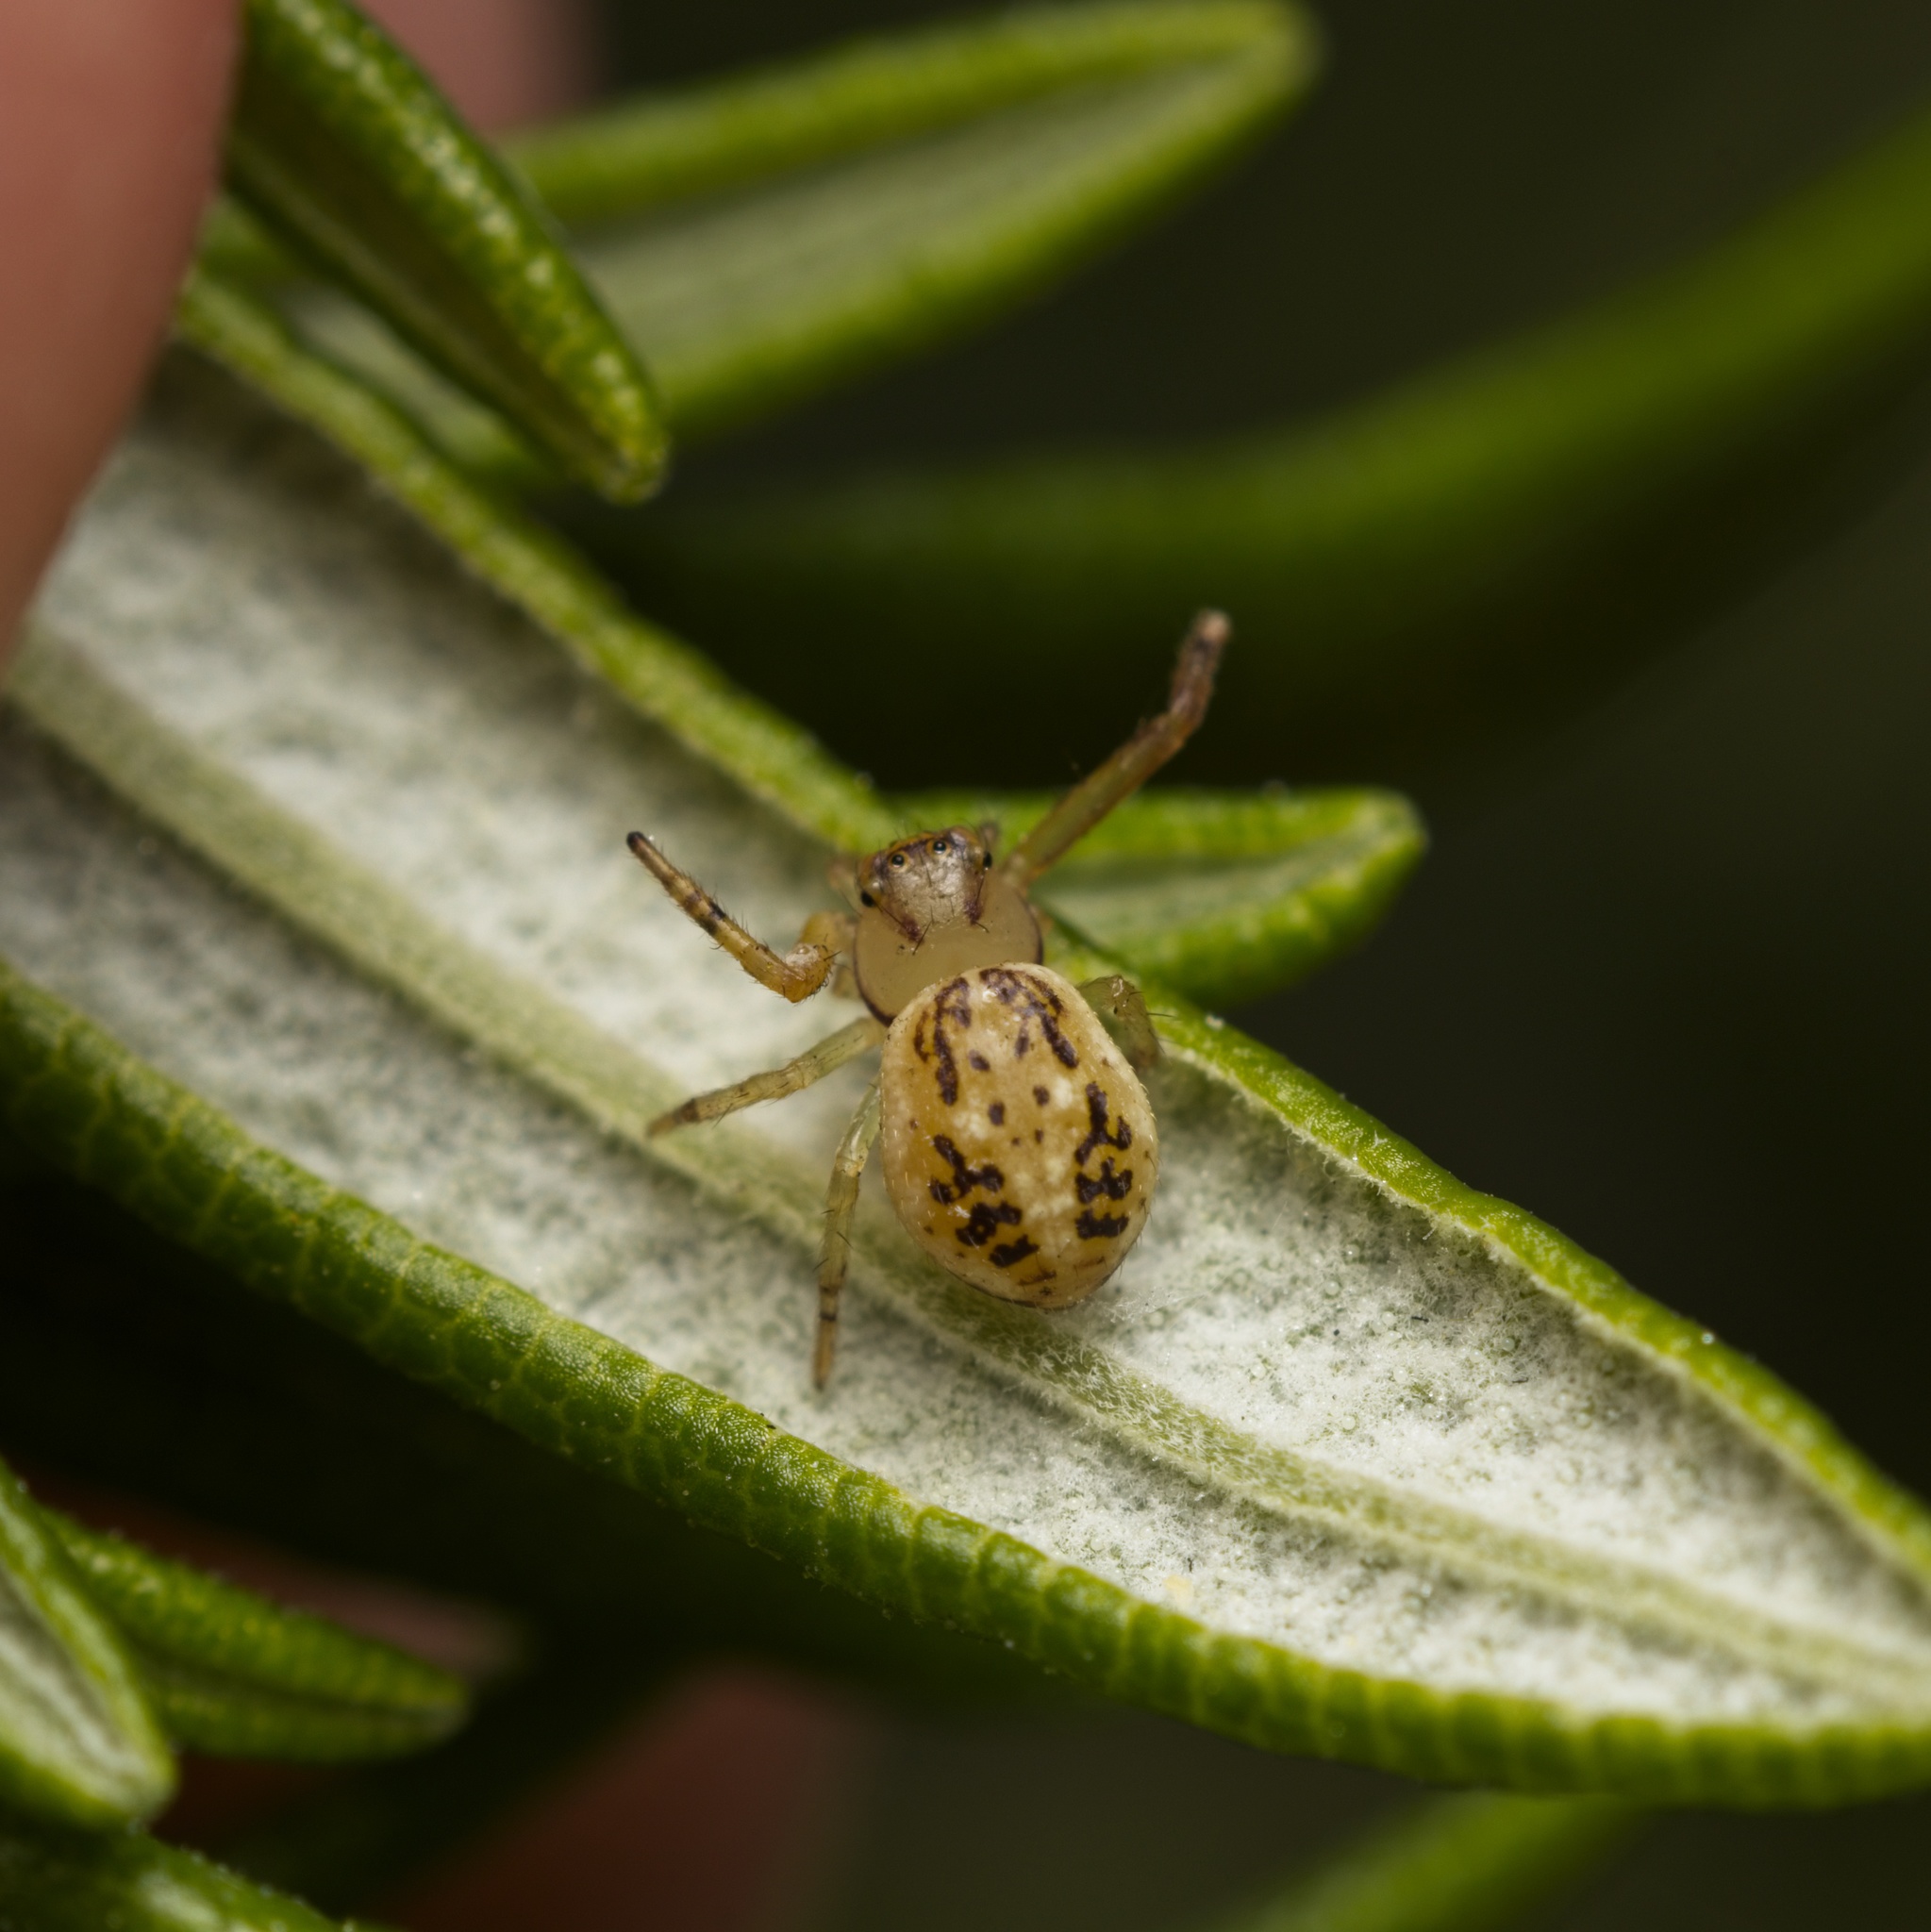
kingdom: Animalia
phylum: Arthropoda
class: Arachnida
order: Araneae
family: Thomisidae
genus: Diaea
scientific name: Diaea ambara
